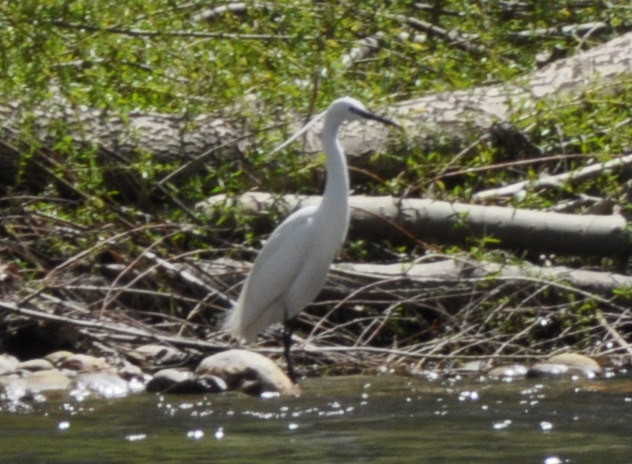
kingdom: Animalia
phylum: Chordata
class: Aves
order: Pelecaniformes
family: Ardeidae
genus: Egretta
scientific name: Egretta garzetta
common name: Little egret
